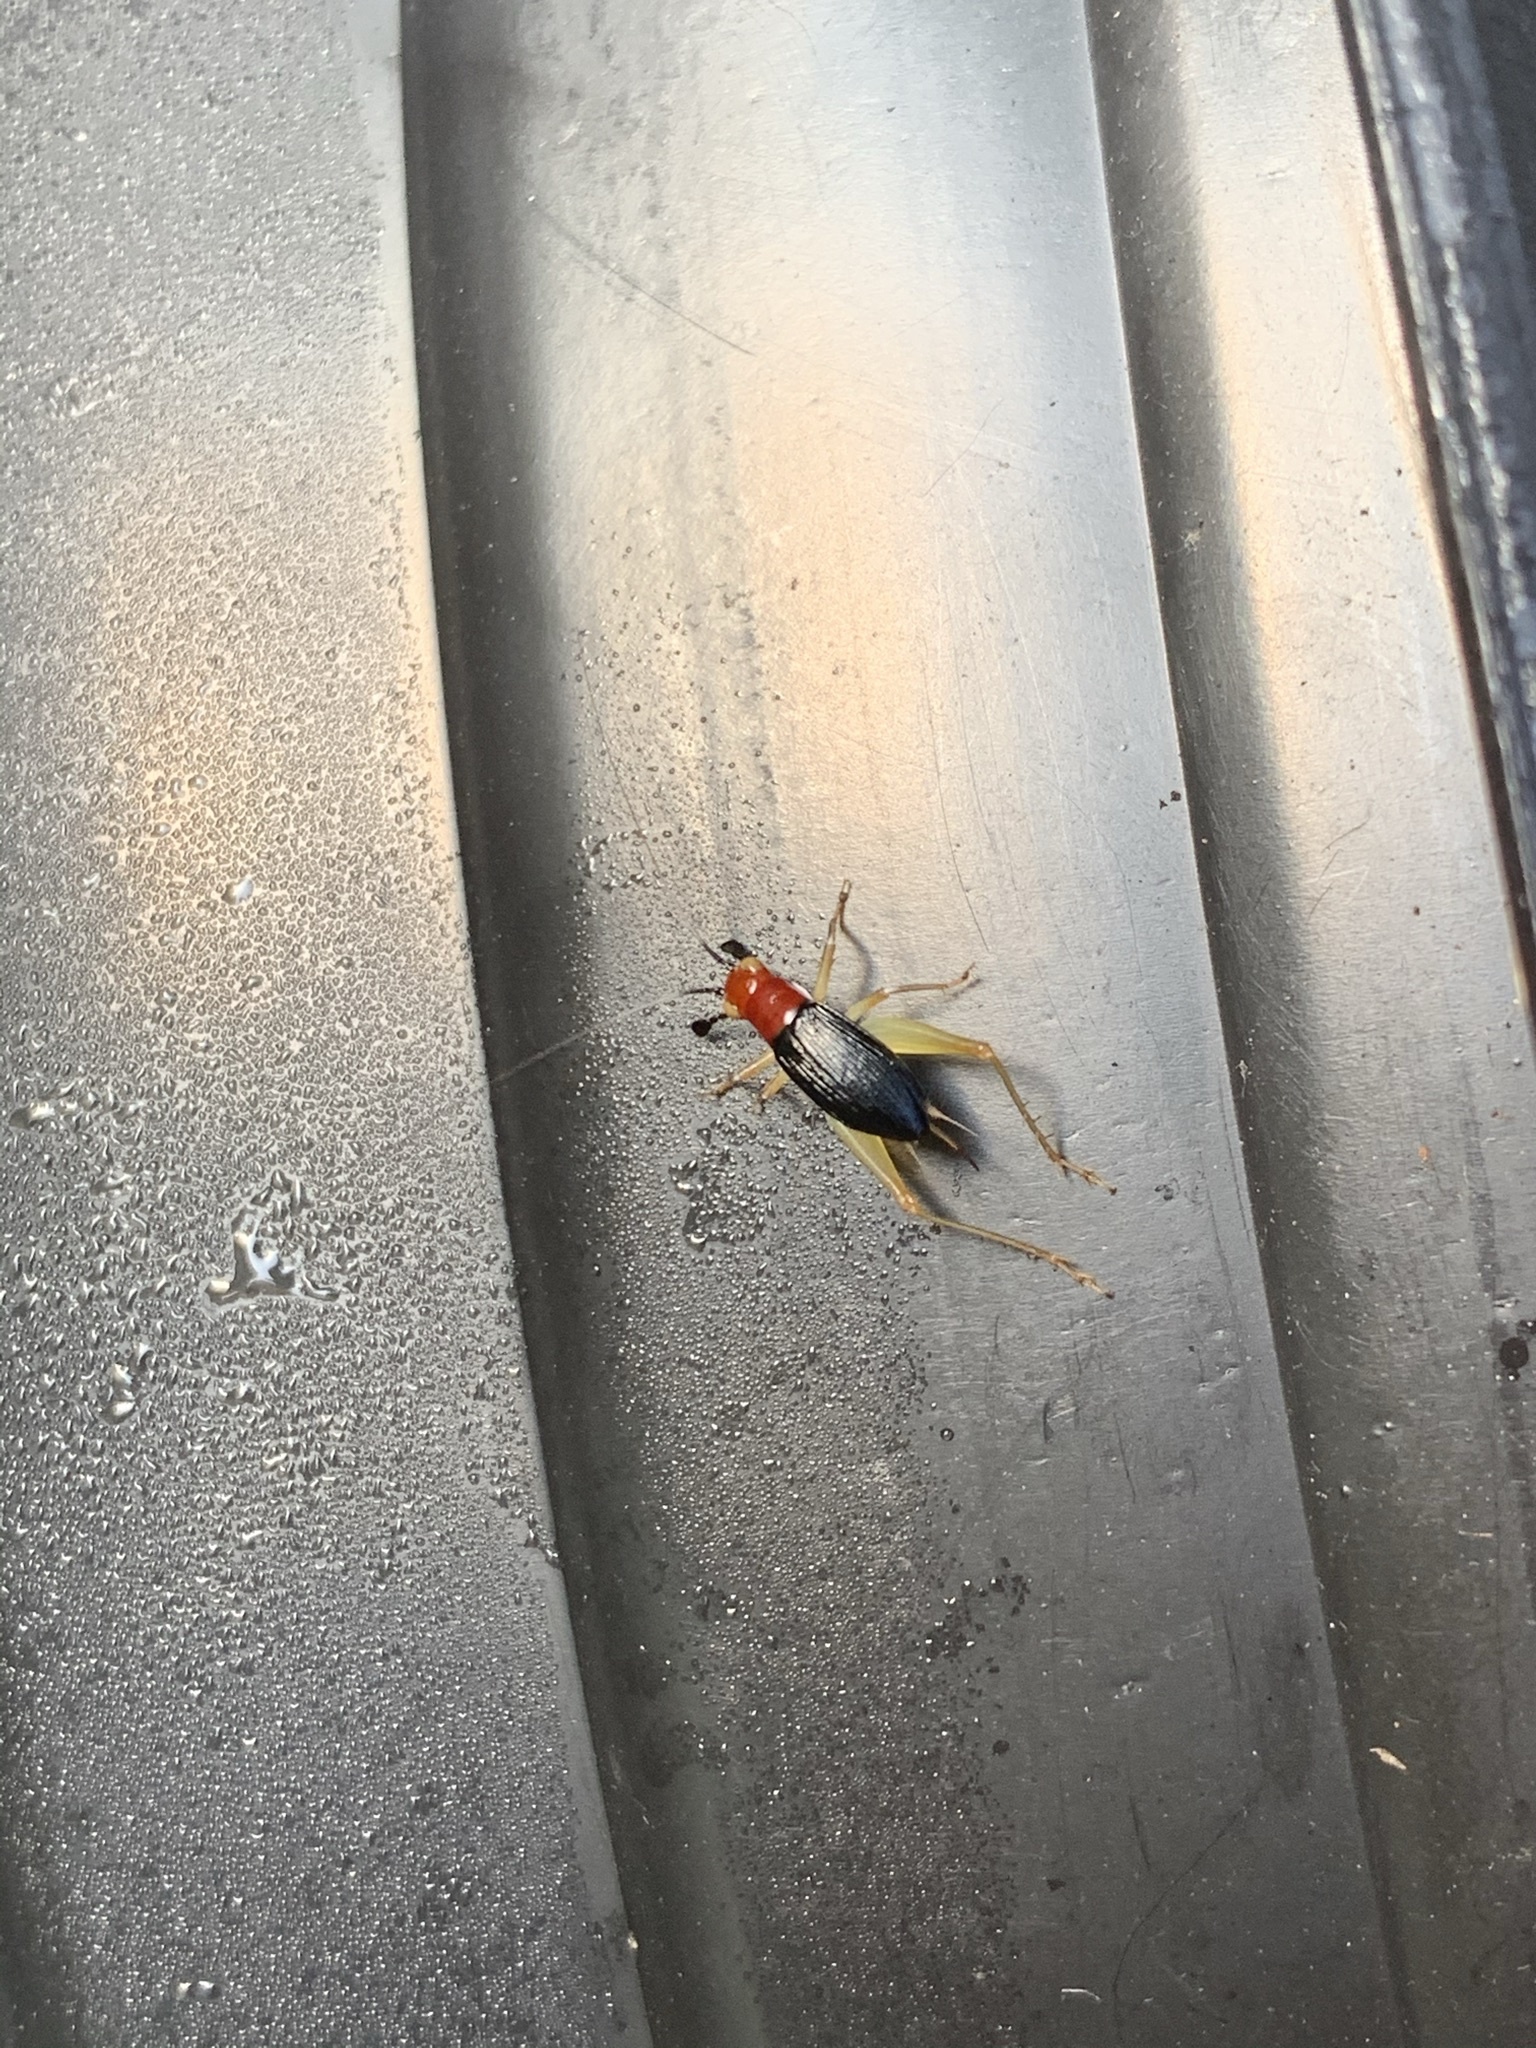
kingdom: Animalia
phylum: Arthropoda
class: Insecta
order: Orthoptera
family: Trigonidiidae
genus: Phyllopalpus
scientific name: Phyllopalpus pulchellus
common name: Handsome trig
